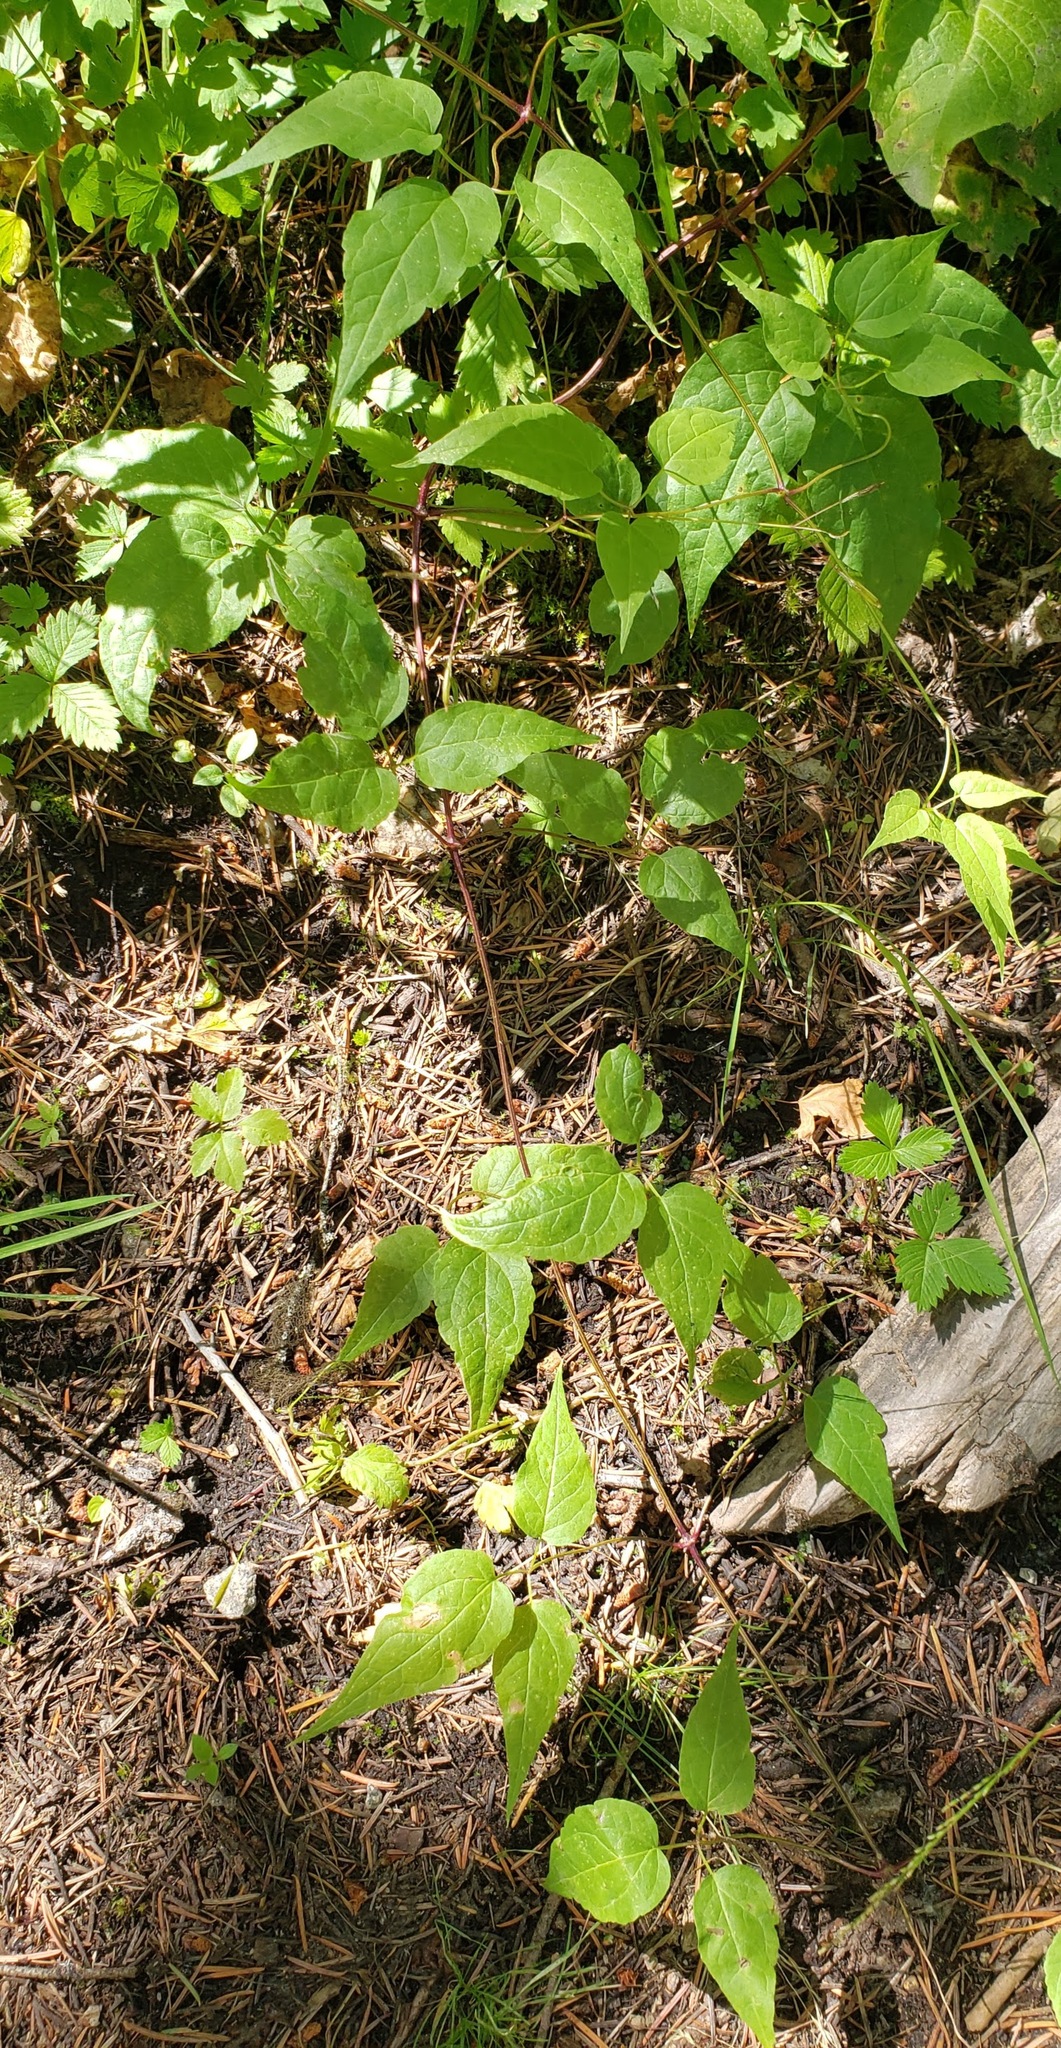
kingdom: Plantae
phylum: Tracheophyta
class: Magnoliopsida
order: Ranunculales
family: Ranunculaceae
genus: Clematis
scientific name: Clematis occidentalis
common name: Purple clematis
